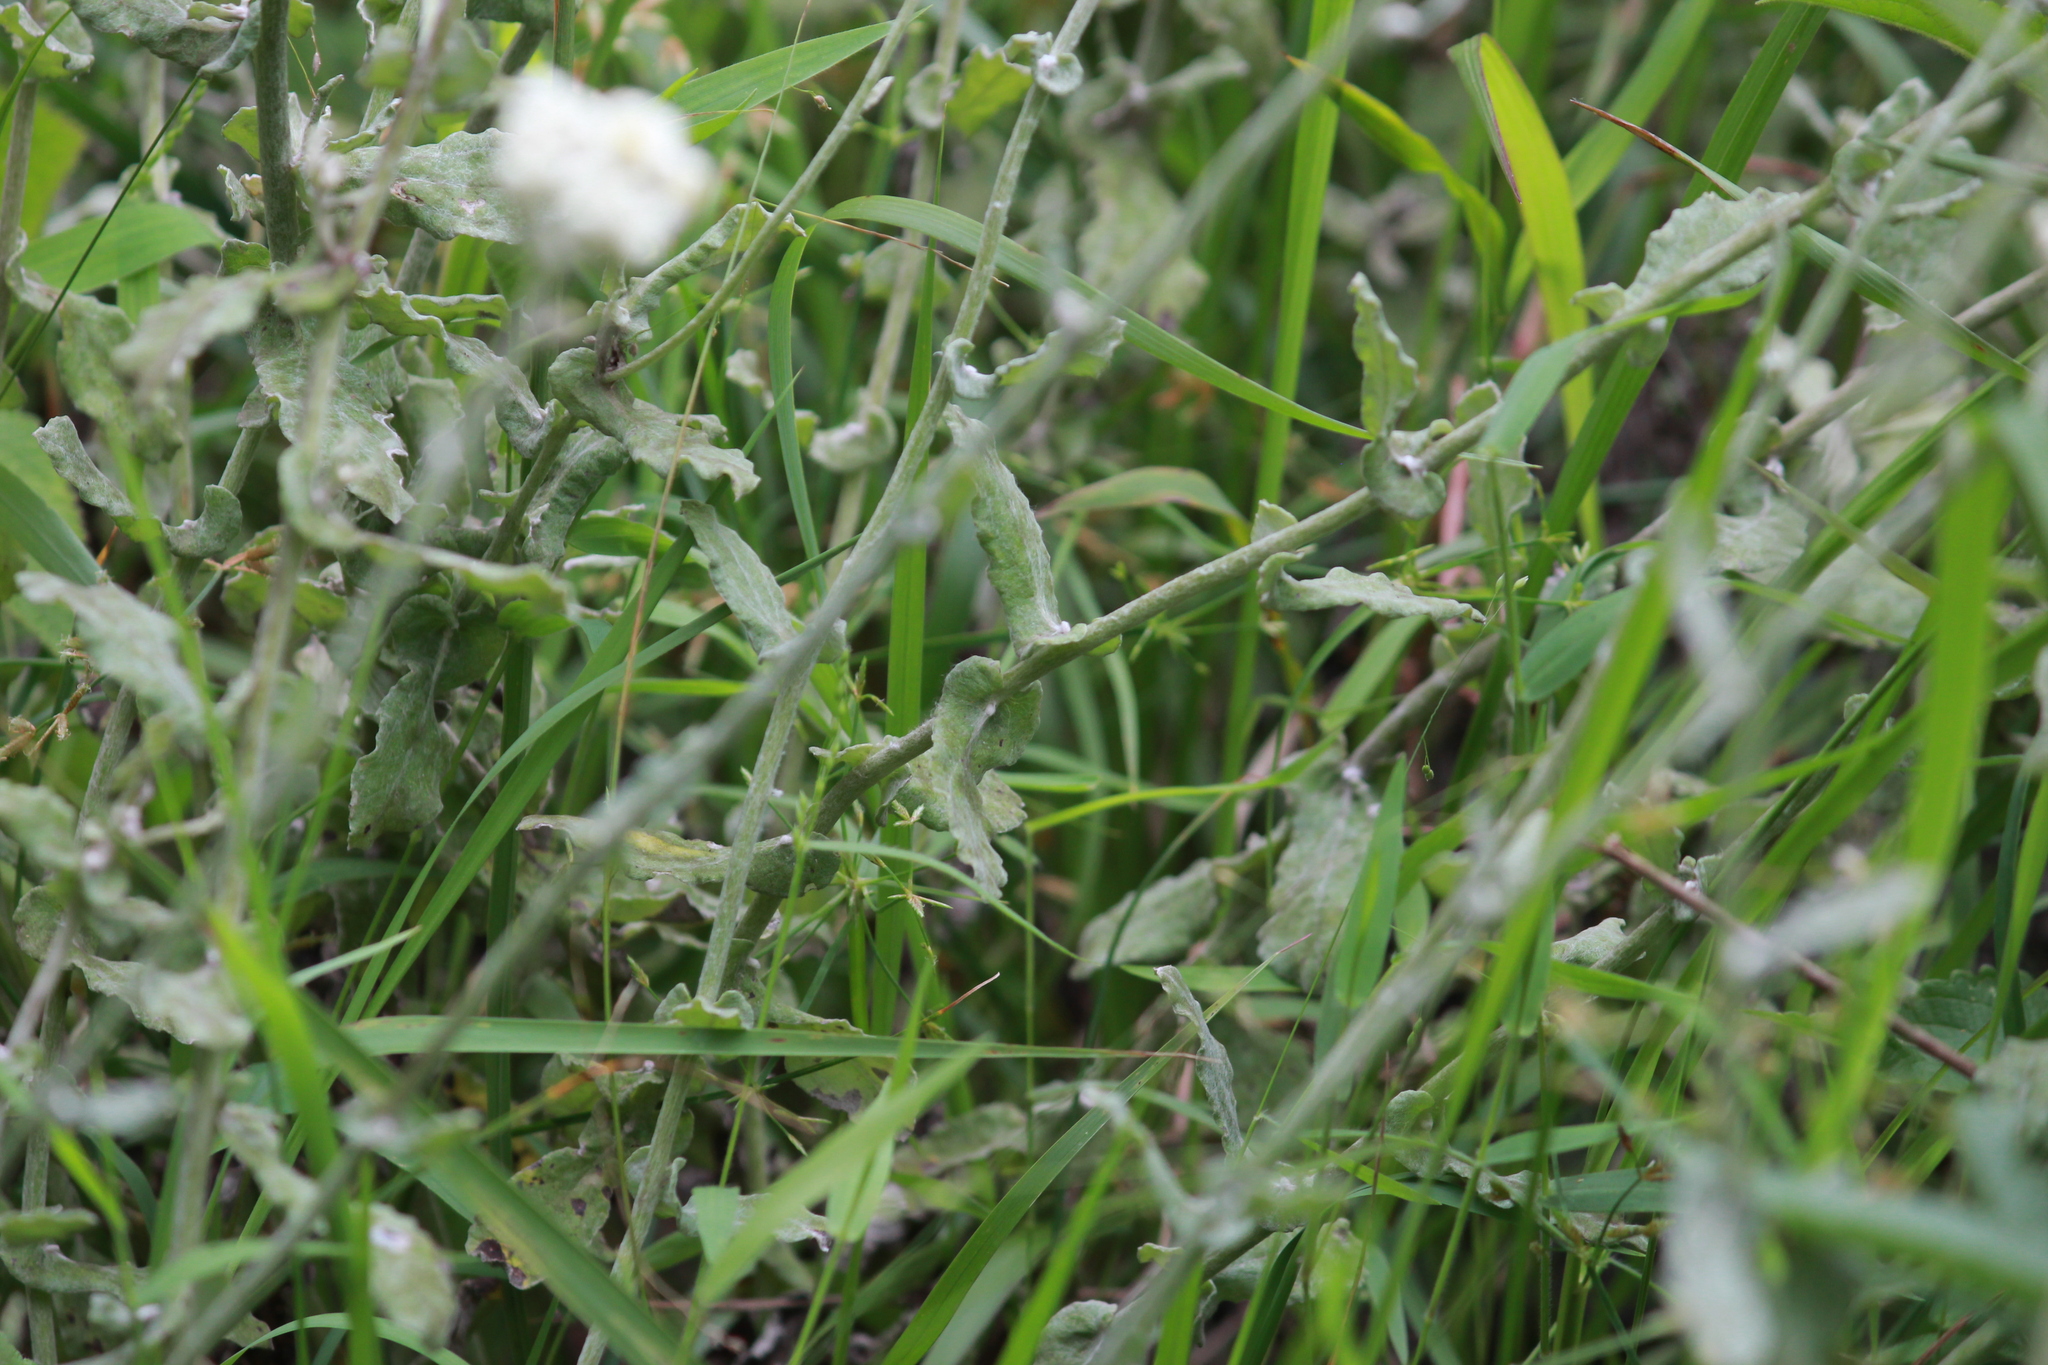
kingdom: Plantae
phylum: Tracheophyta
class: Magnoliopsida
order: Asterales
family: Asteraceae
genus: Helichrysum
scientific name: Helichrysum panduratum
